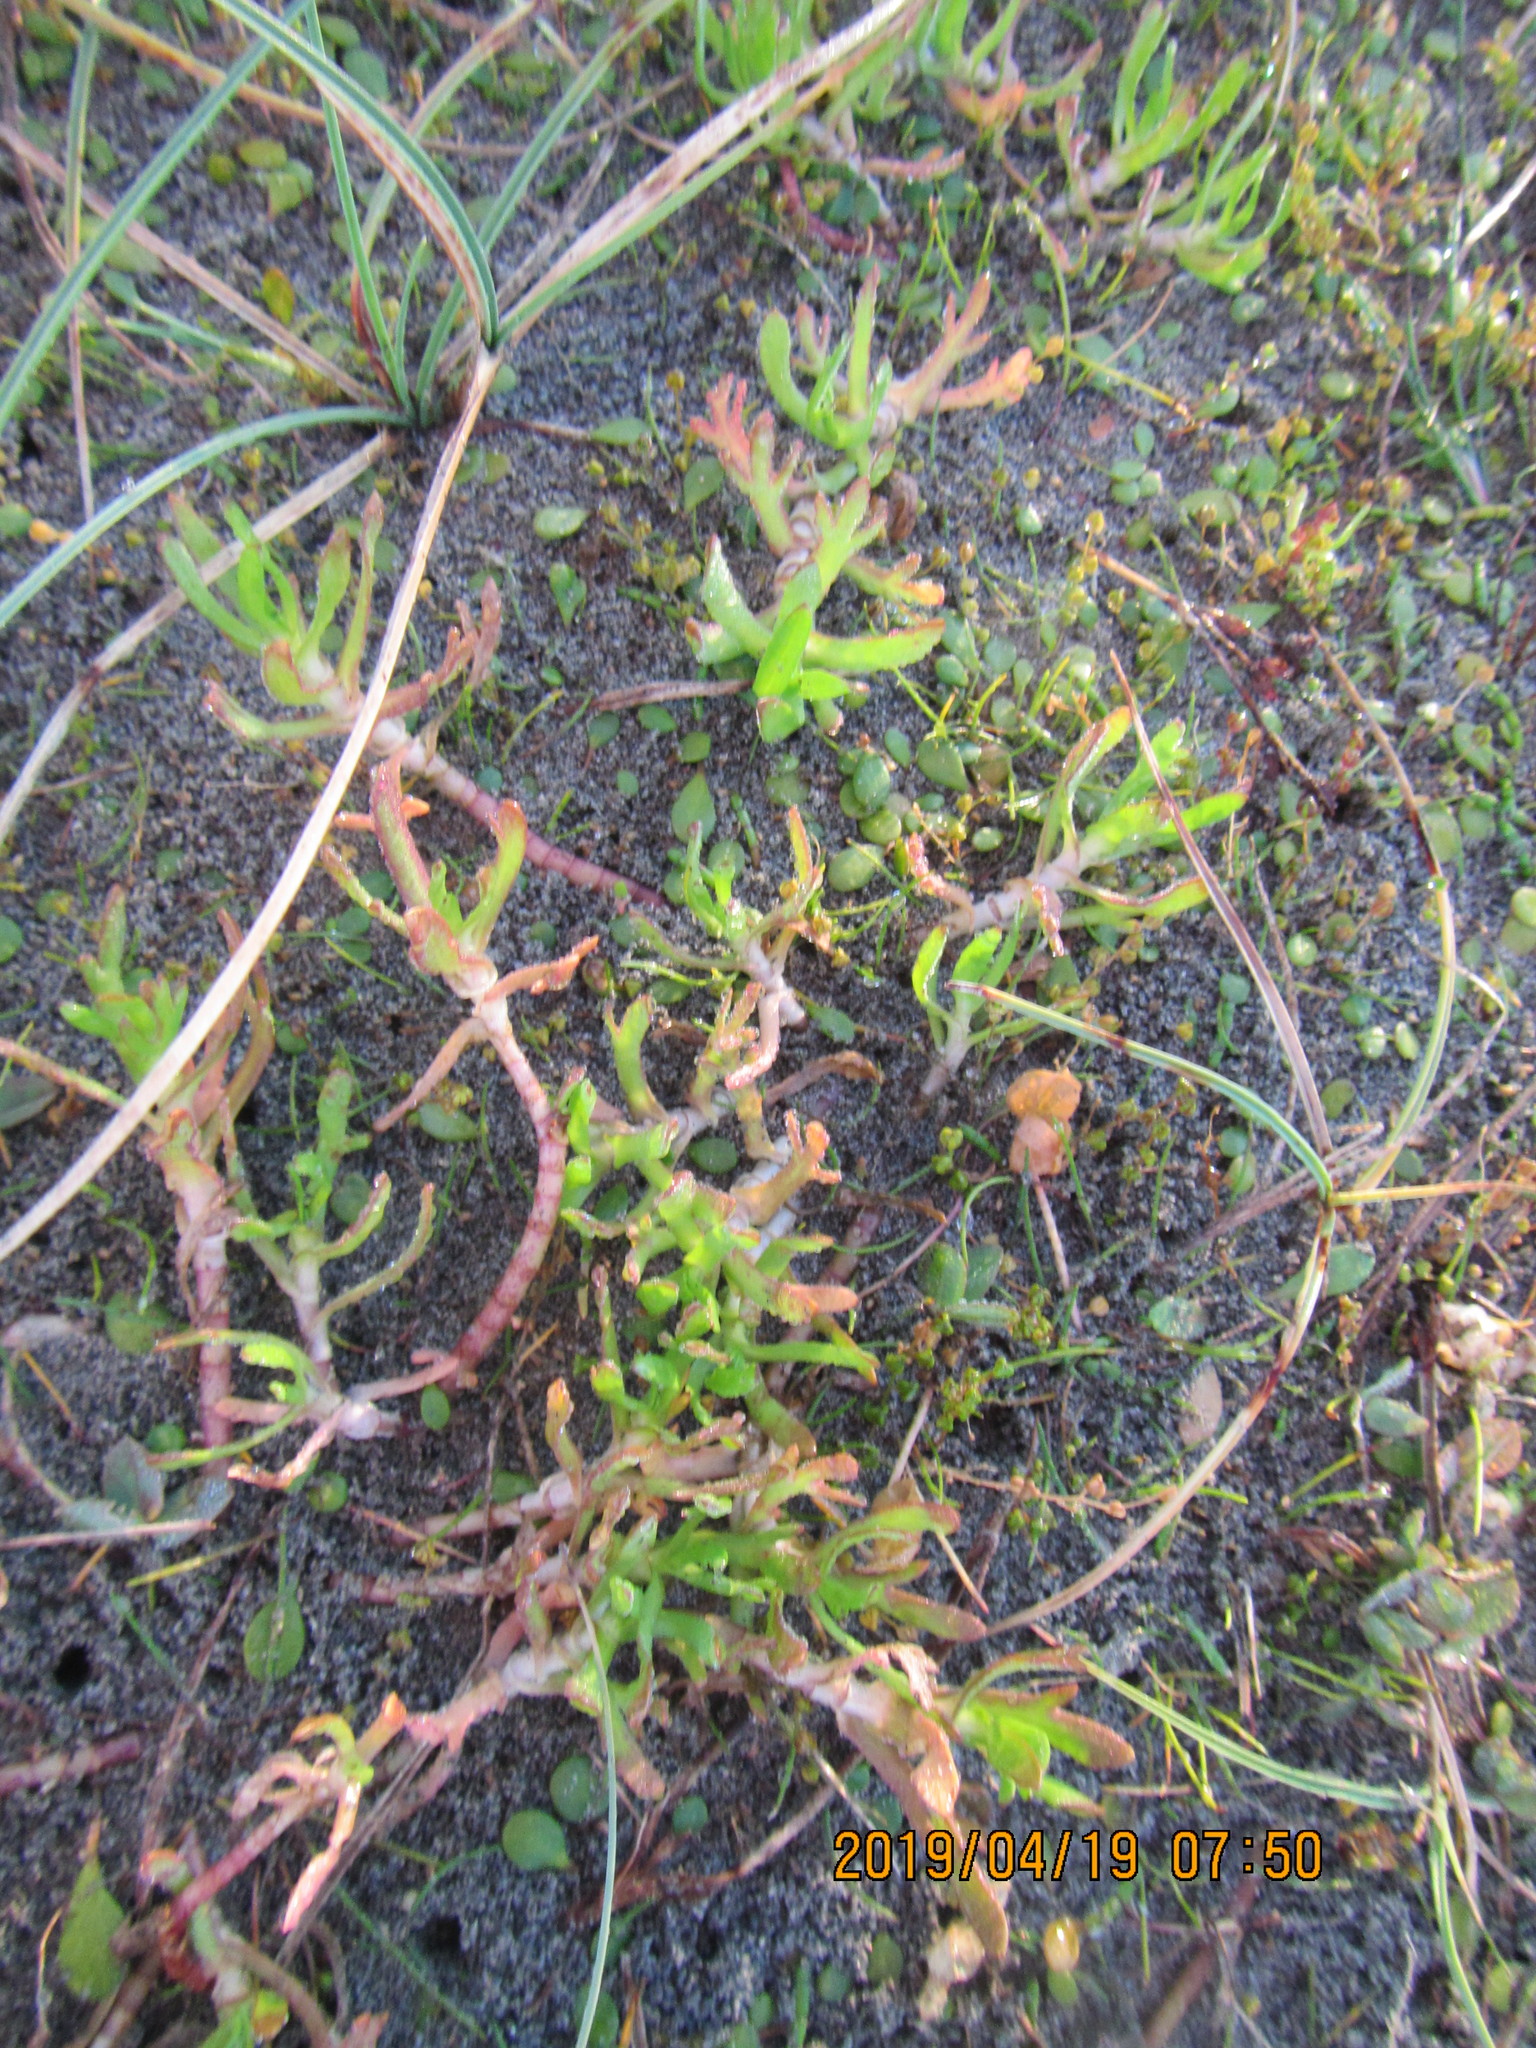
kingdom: Plantae
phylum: Tracheophyta
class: Magnoliopsida
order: Asterales
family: Asteraceae
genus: Cotula
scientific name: Cotula coronopifolia
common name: Buttonweed
